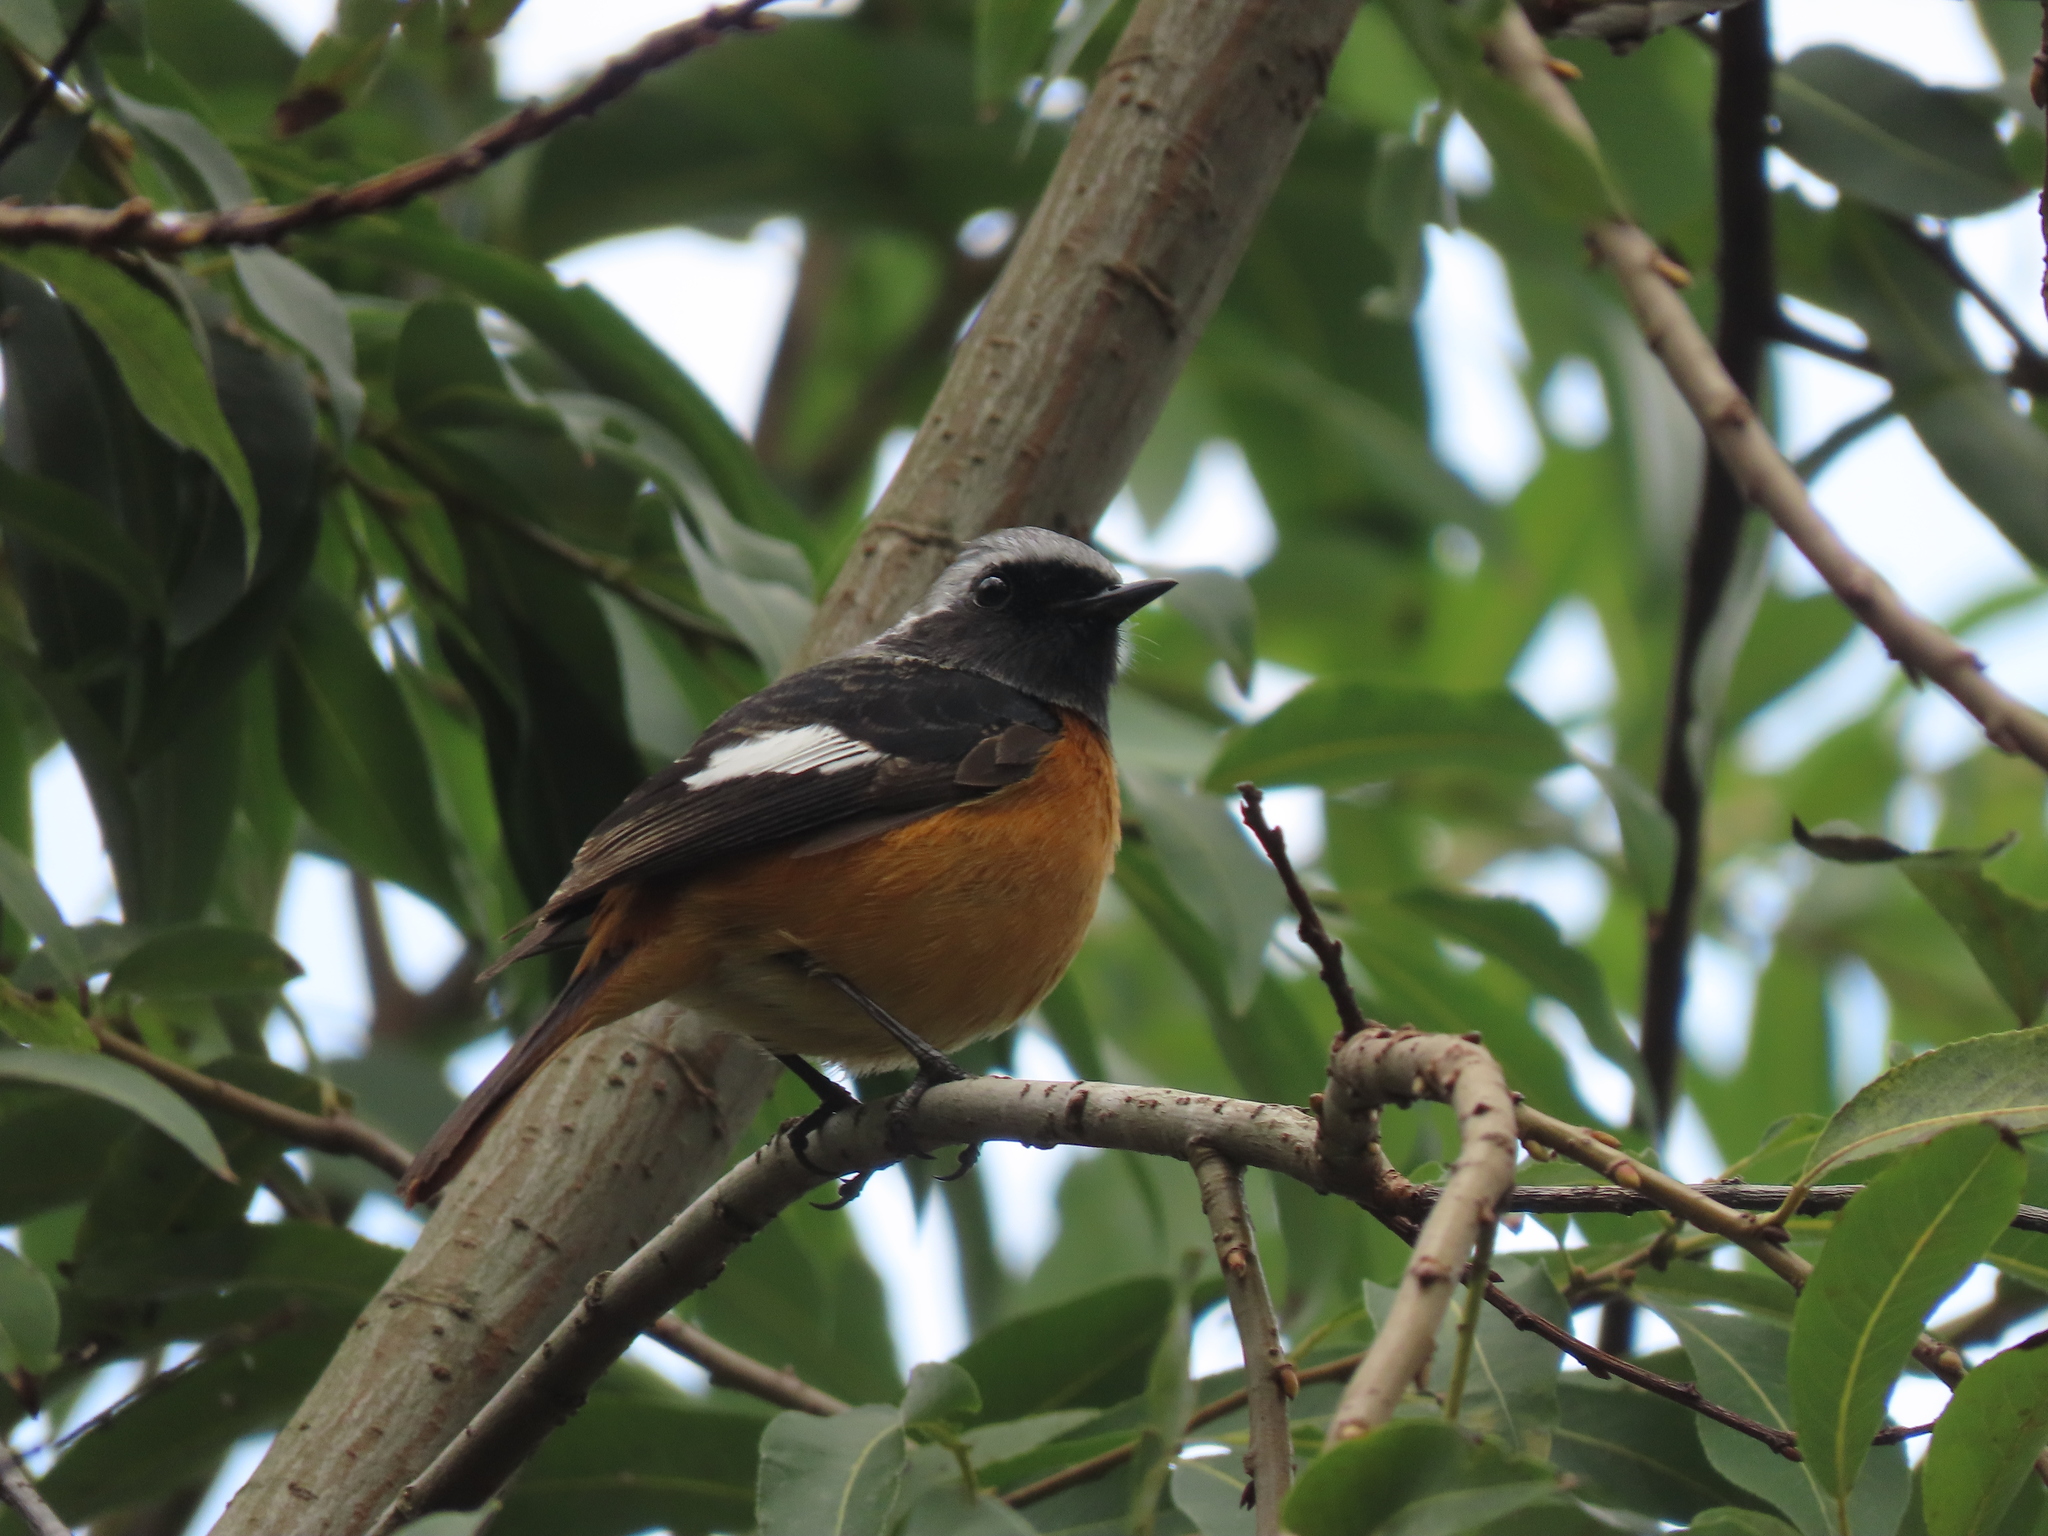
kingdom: Animalia
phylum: Chordata
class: Aves
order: Passeriformes
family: Muscicapidae
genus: Phoenicurus
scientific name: Phoenicurus auroreus
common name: Daurian redstart
